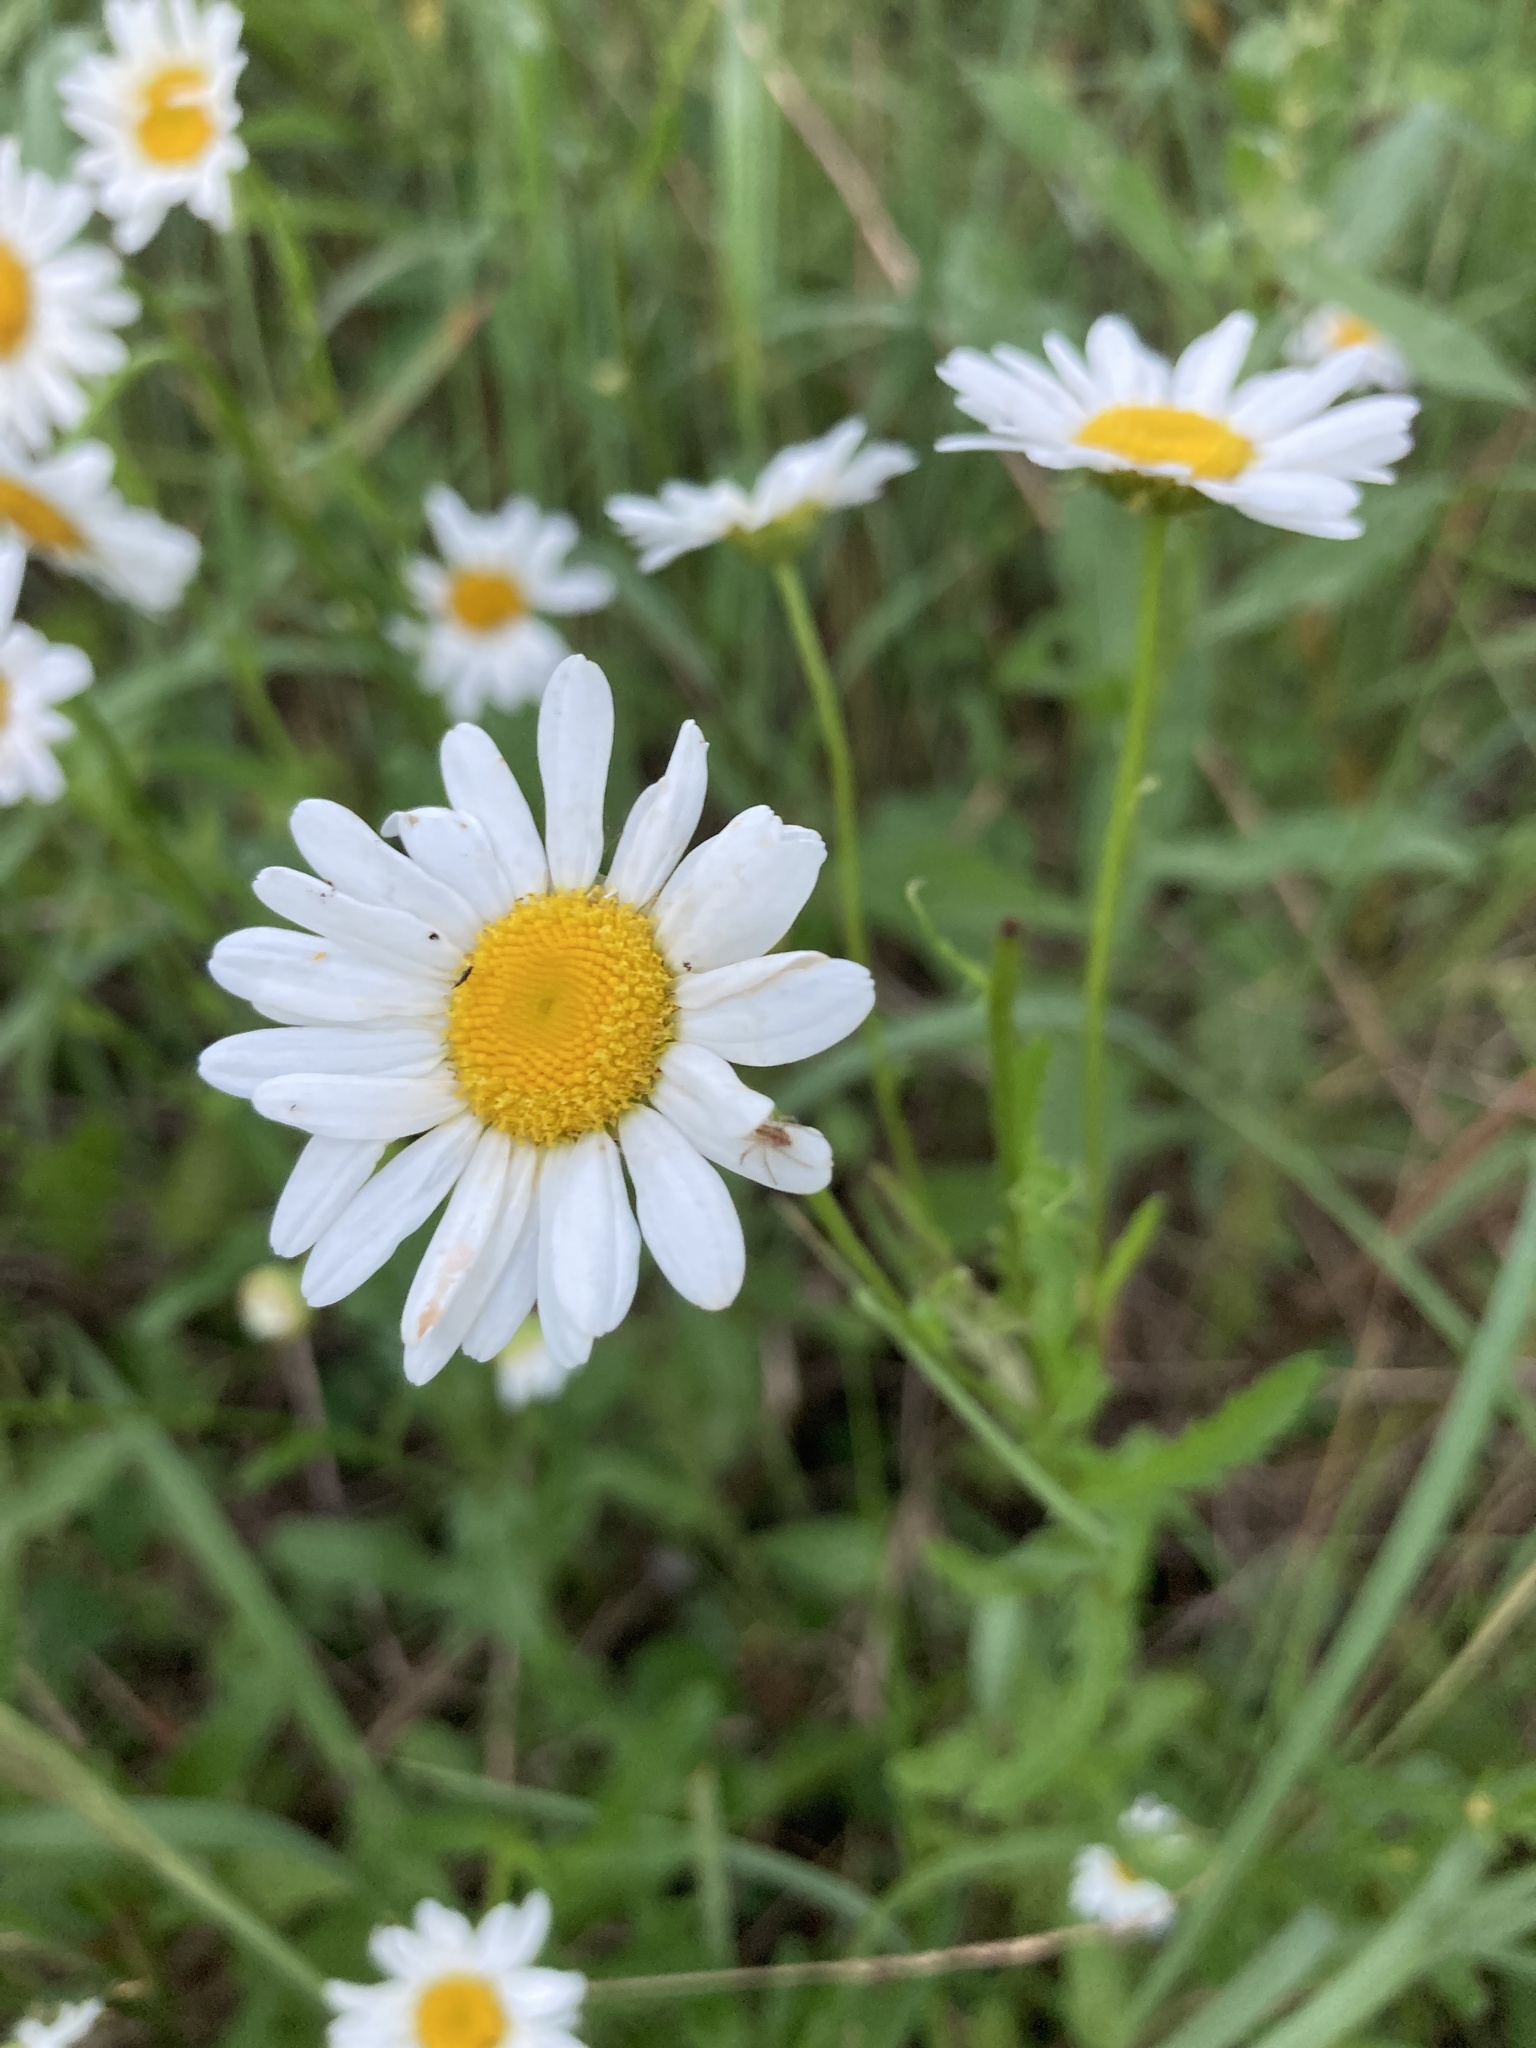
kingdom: Plantae
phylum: Tracheophyta
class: Magnoliopsida
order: Asterales
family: Asteraceae
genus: Leucanthemum
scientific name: Leucanthemum vulgare
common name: Oxeye daisy
